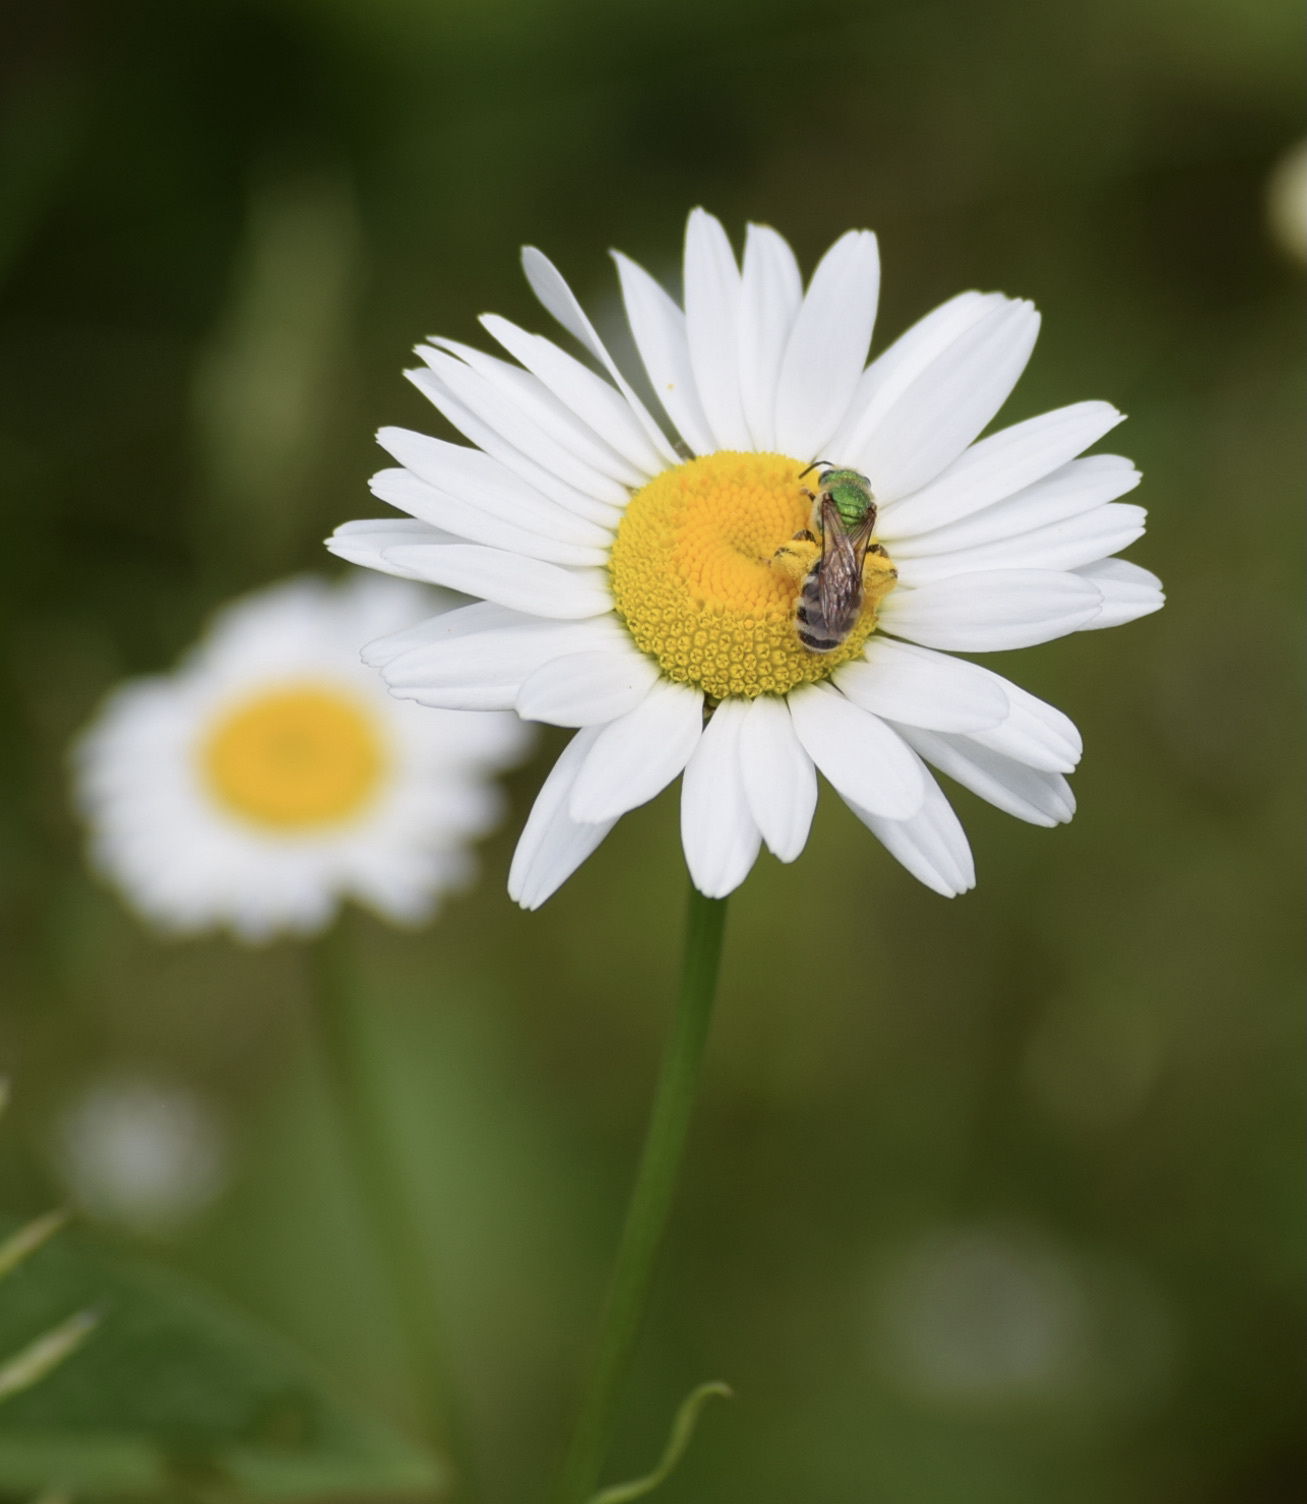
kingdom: Animalia
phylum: Arthropoda
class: Insecta
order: Hymenoptera
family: Halictidae
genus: Agapostemon
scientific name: Agapostemon virescens
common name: Bicolored striped sweat bee
